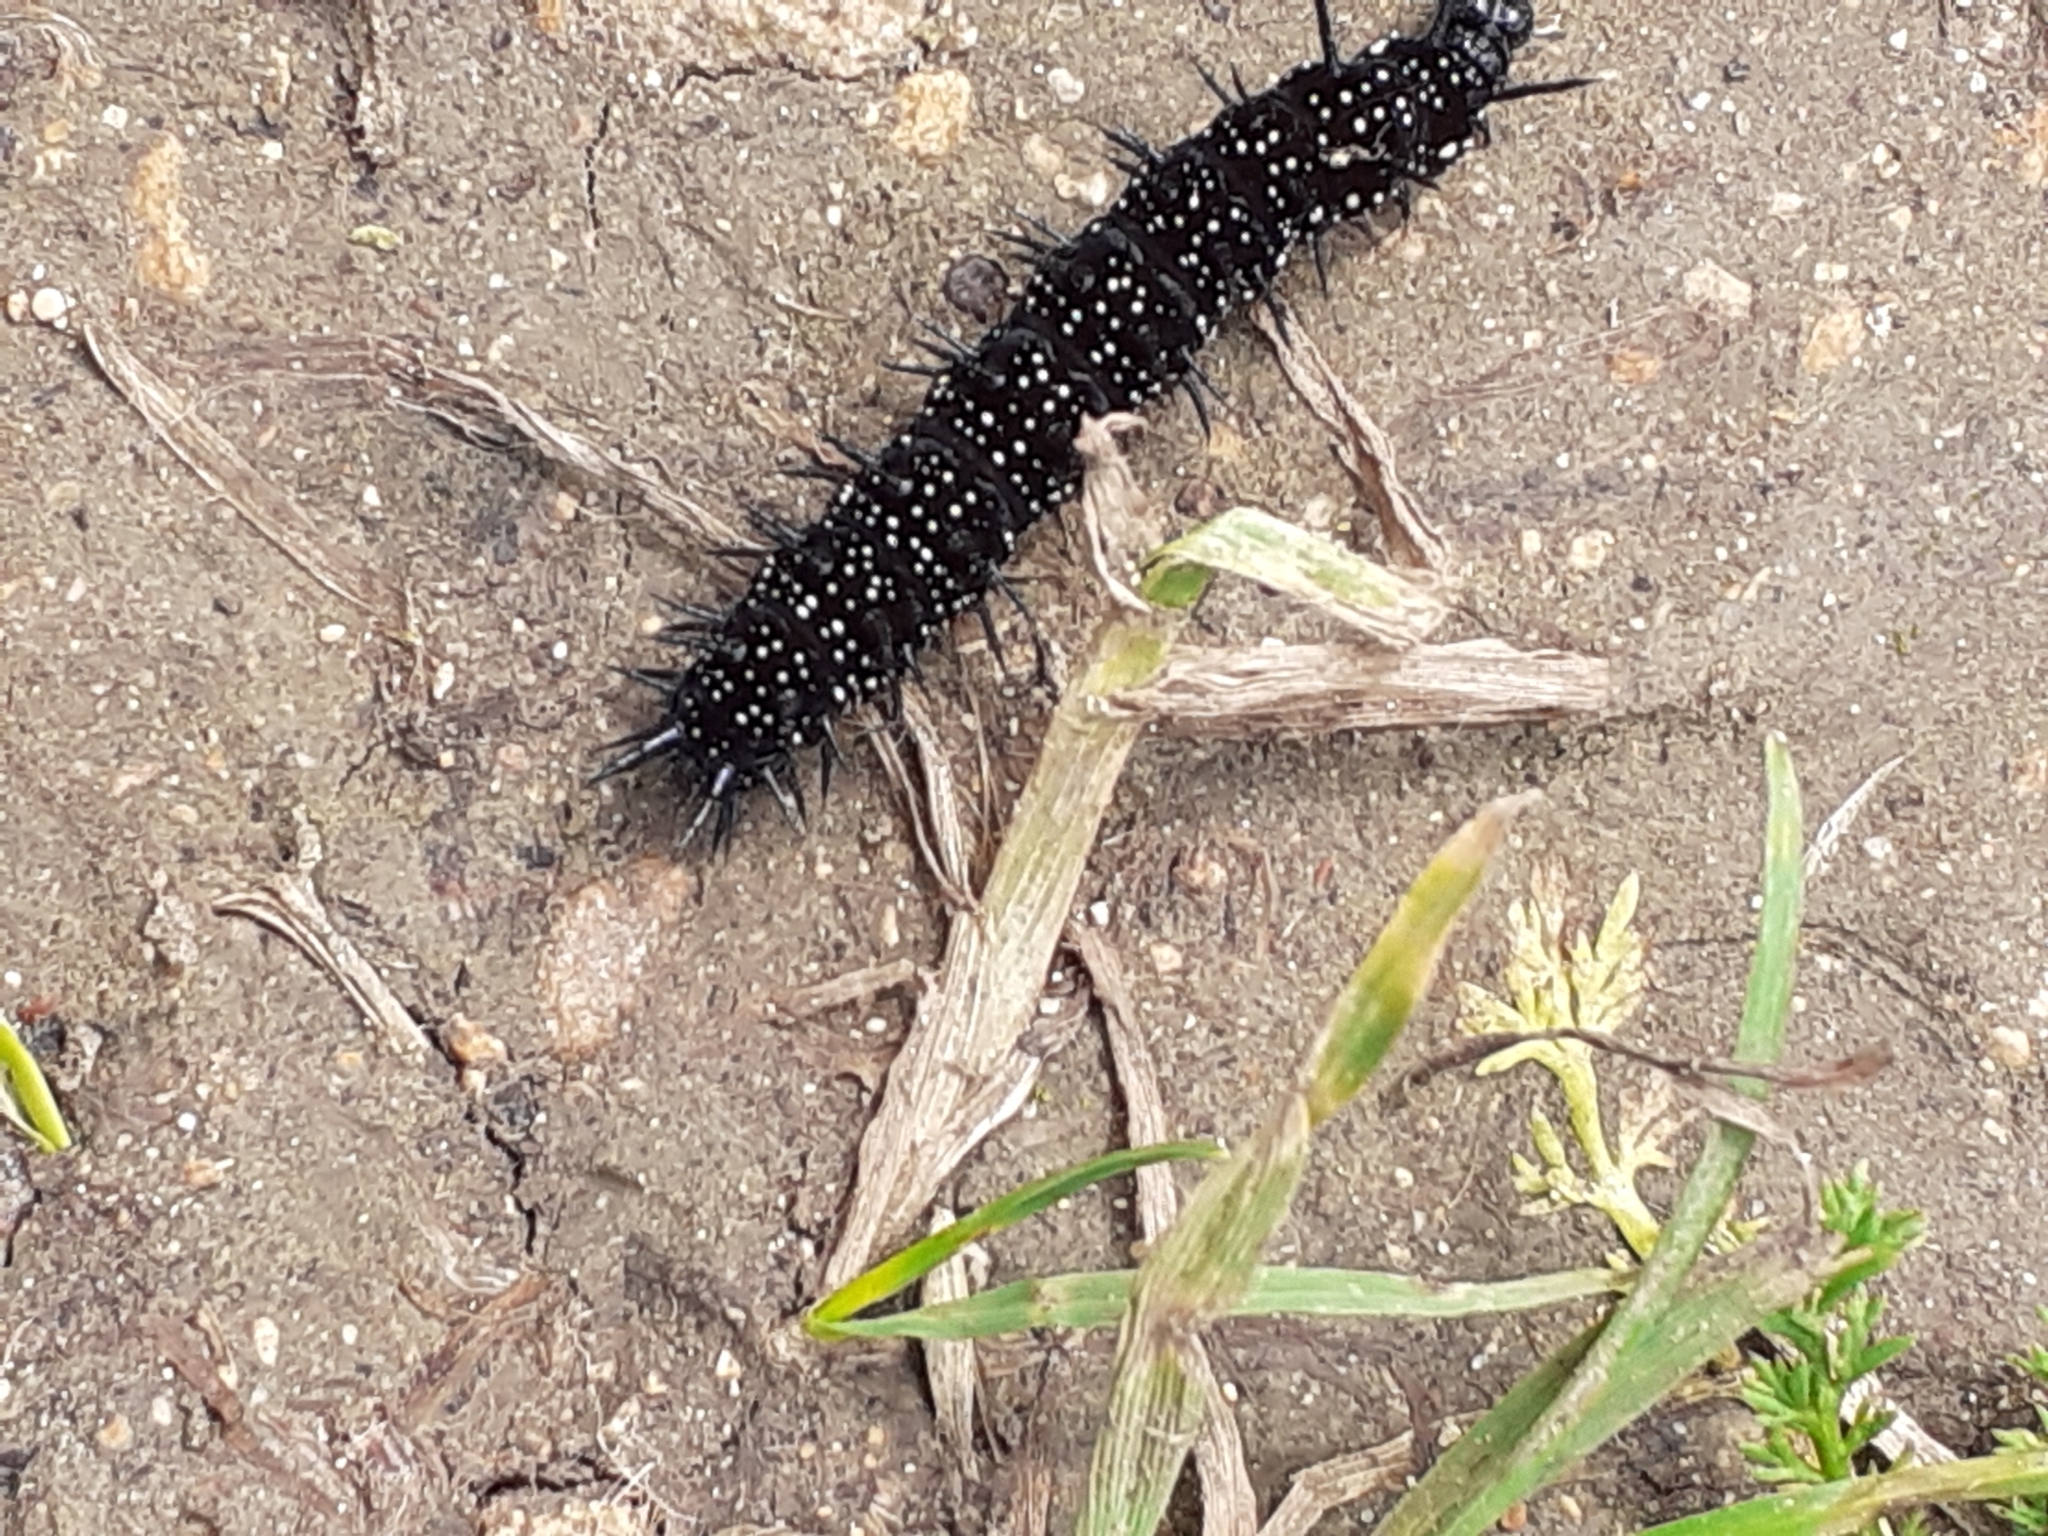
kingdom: Animalia
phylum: Arthropoda
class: Insecta
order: Lepidoptera
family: Nymphalidae
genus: Aglais
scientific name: Aglais io
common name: Peacock
